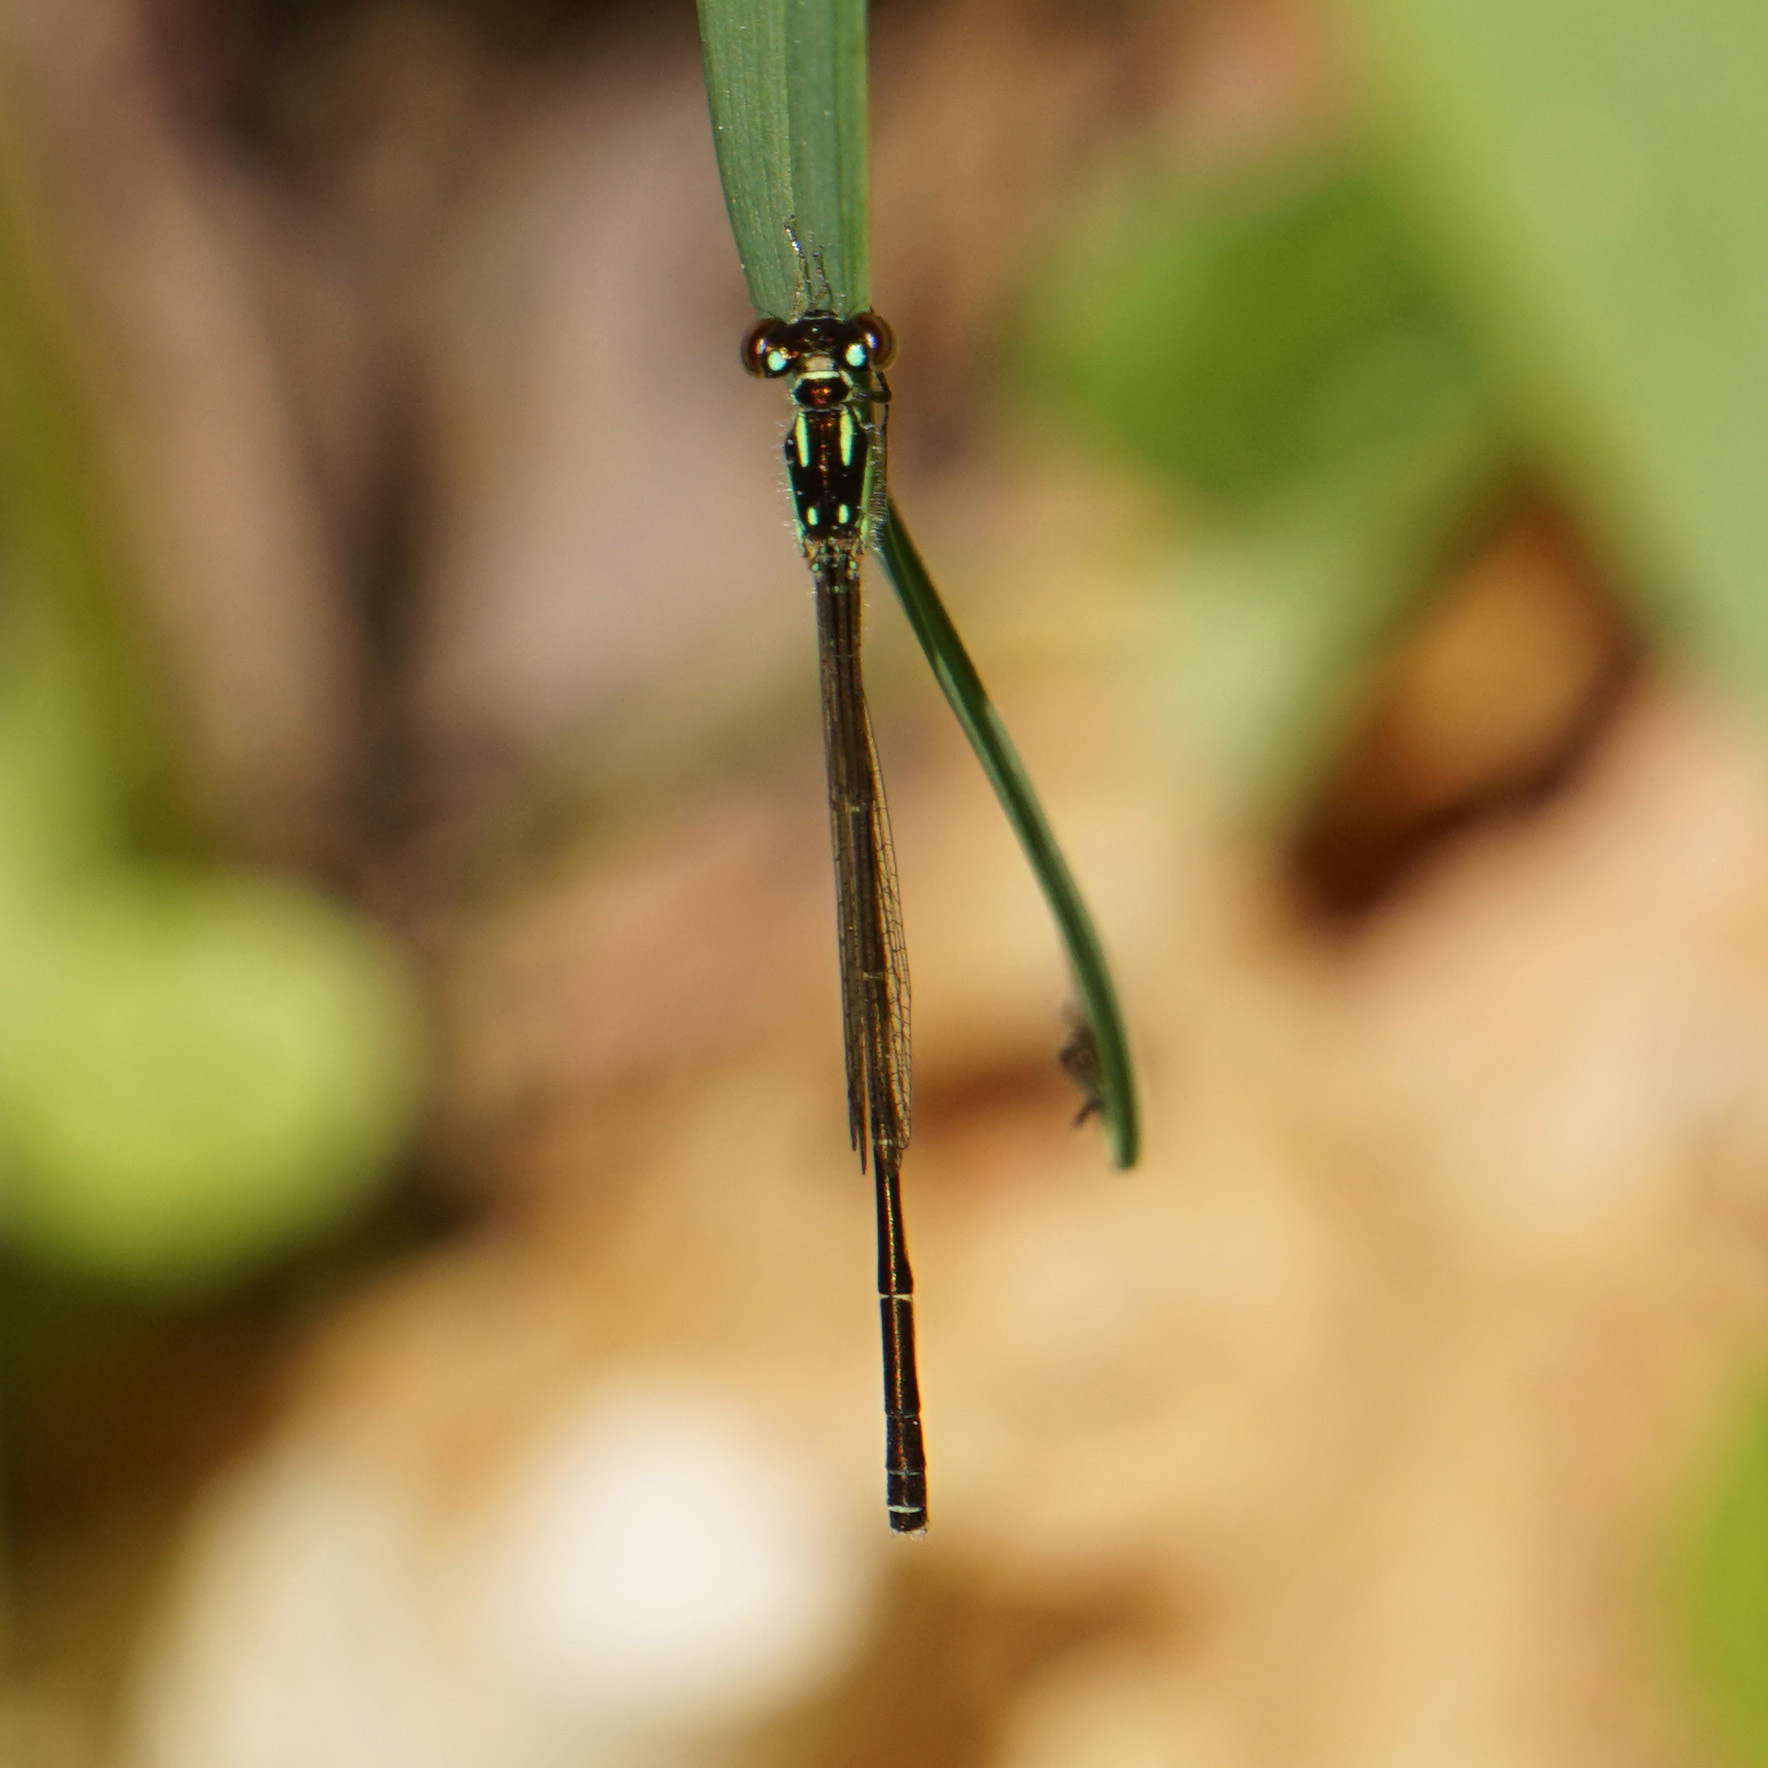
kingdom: Animalia
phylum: Arthropoda
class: Insecta
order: Odonata
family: Coenagrionidae
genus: Ischnura
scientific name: Ischnura posita
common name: Fragile forktail
